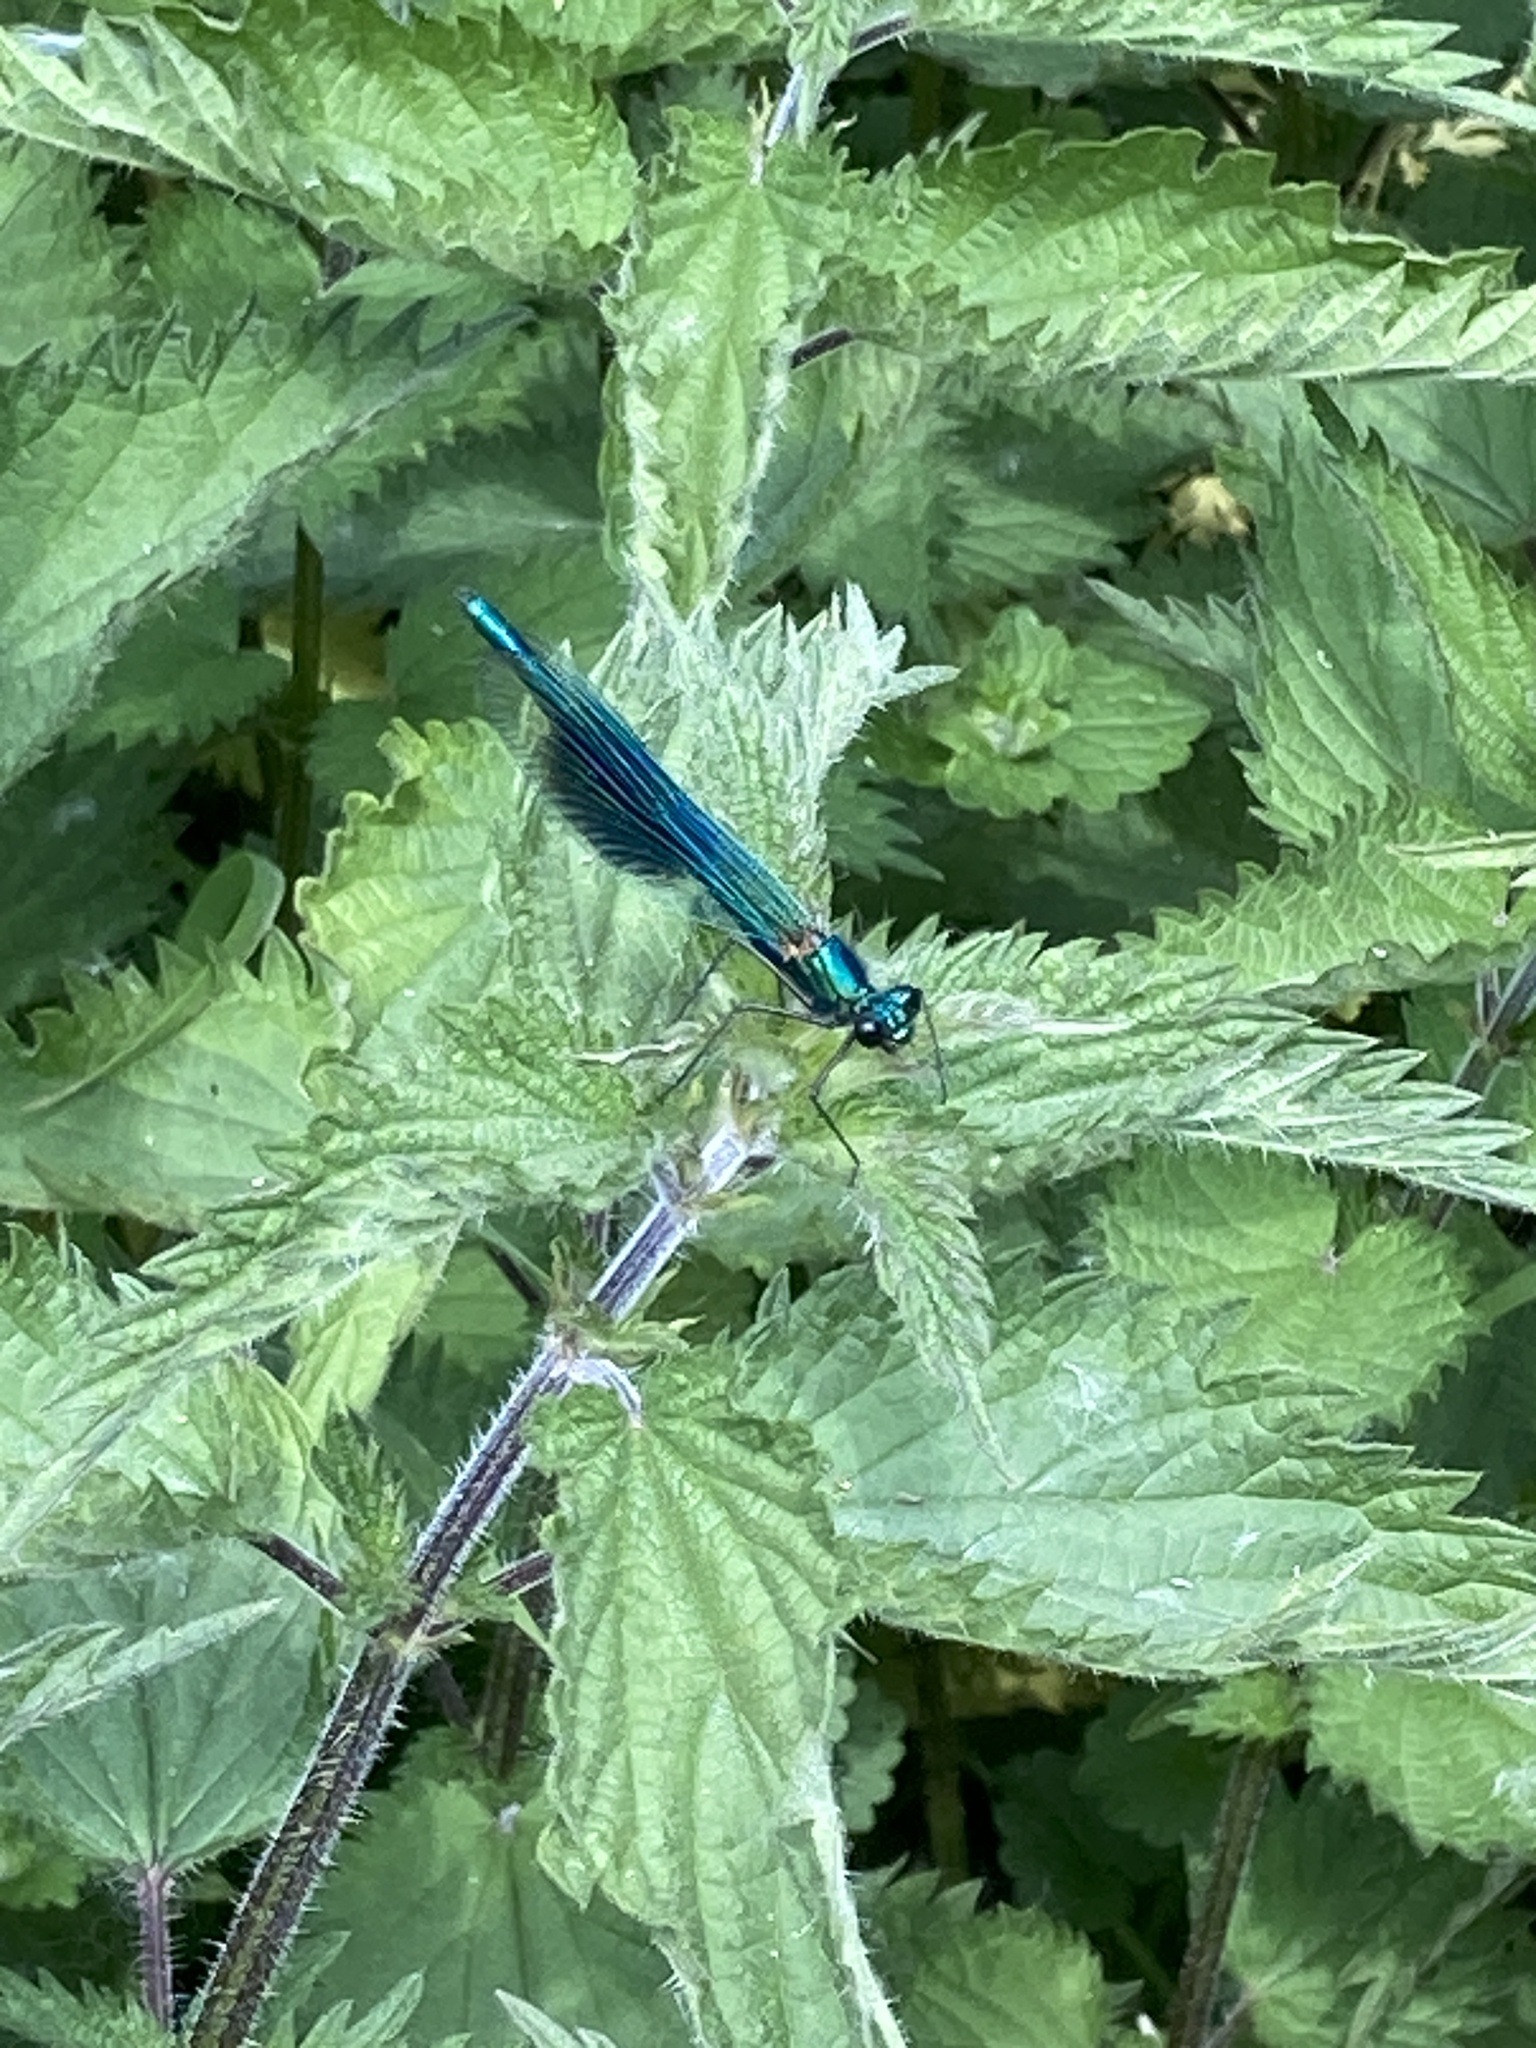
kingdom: Animalia
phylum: Arthropoda
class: Insecta
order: Odonata
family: Calopterygidae
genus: Calopteryx
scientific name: Calopteryx splendens
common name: Banded demoiselle
